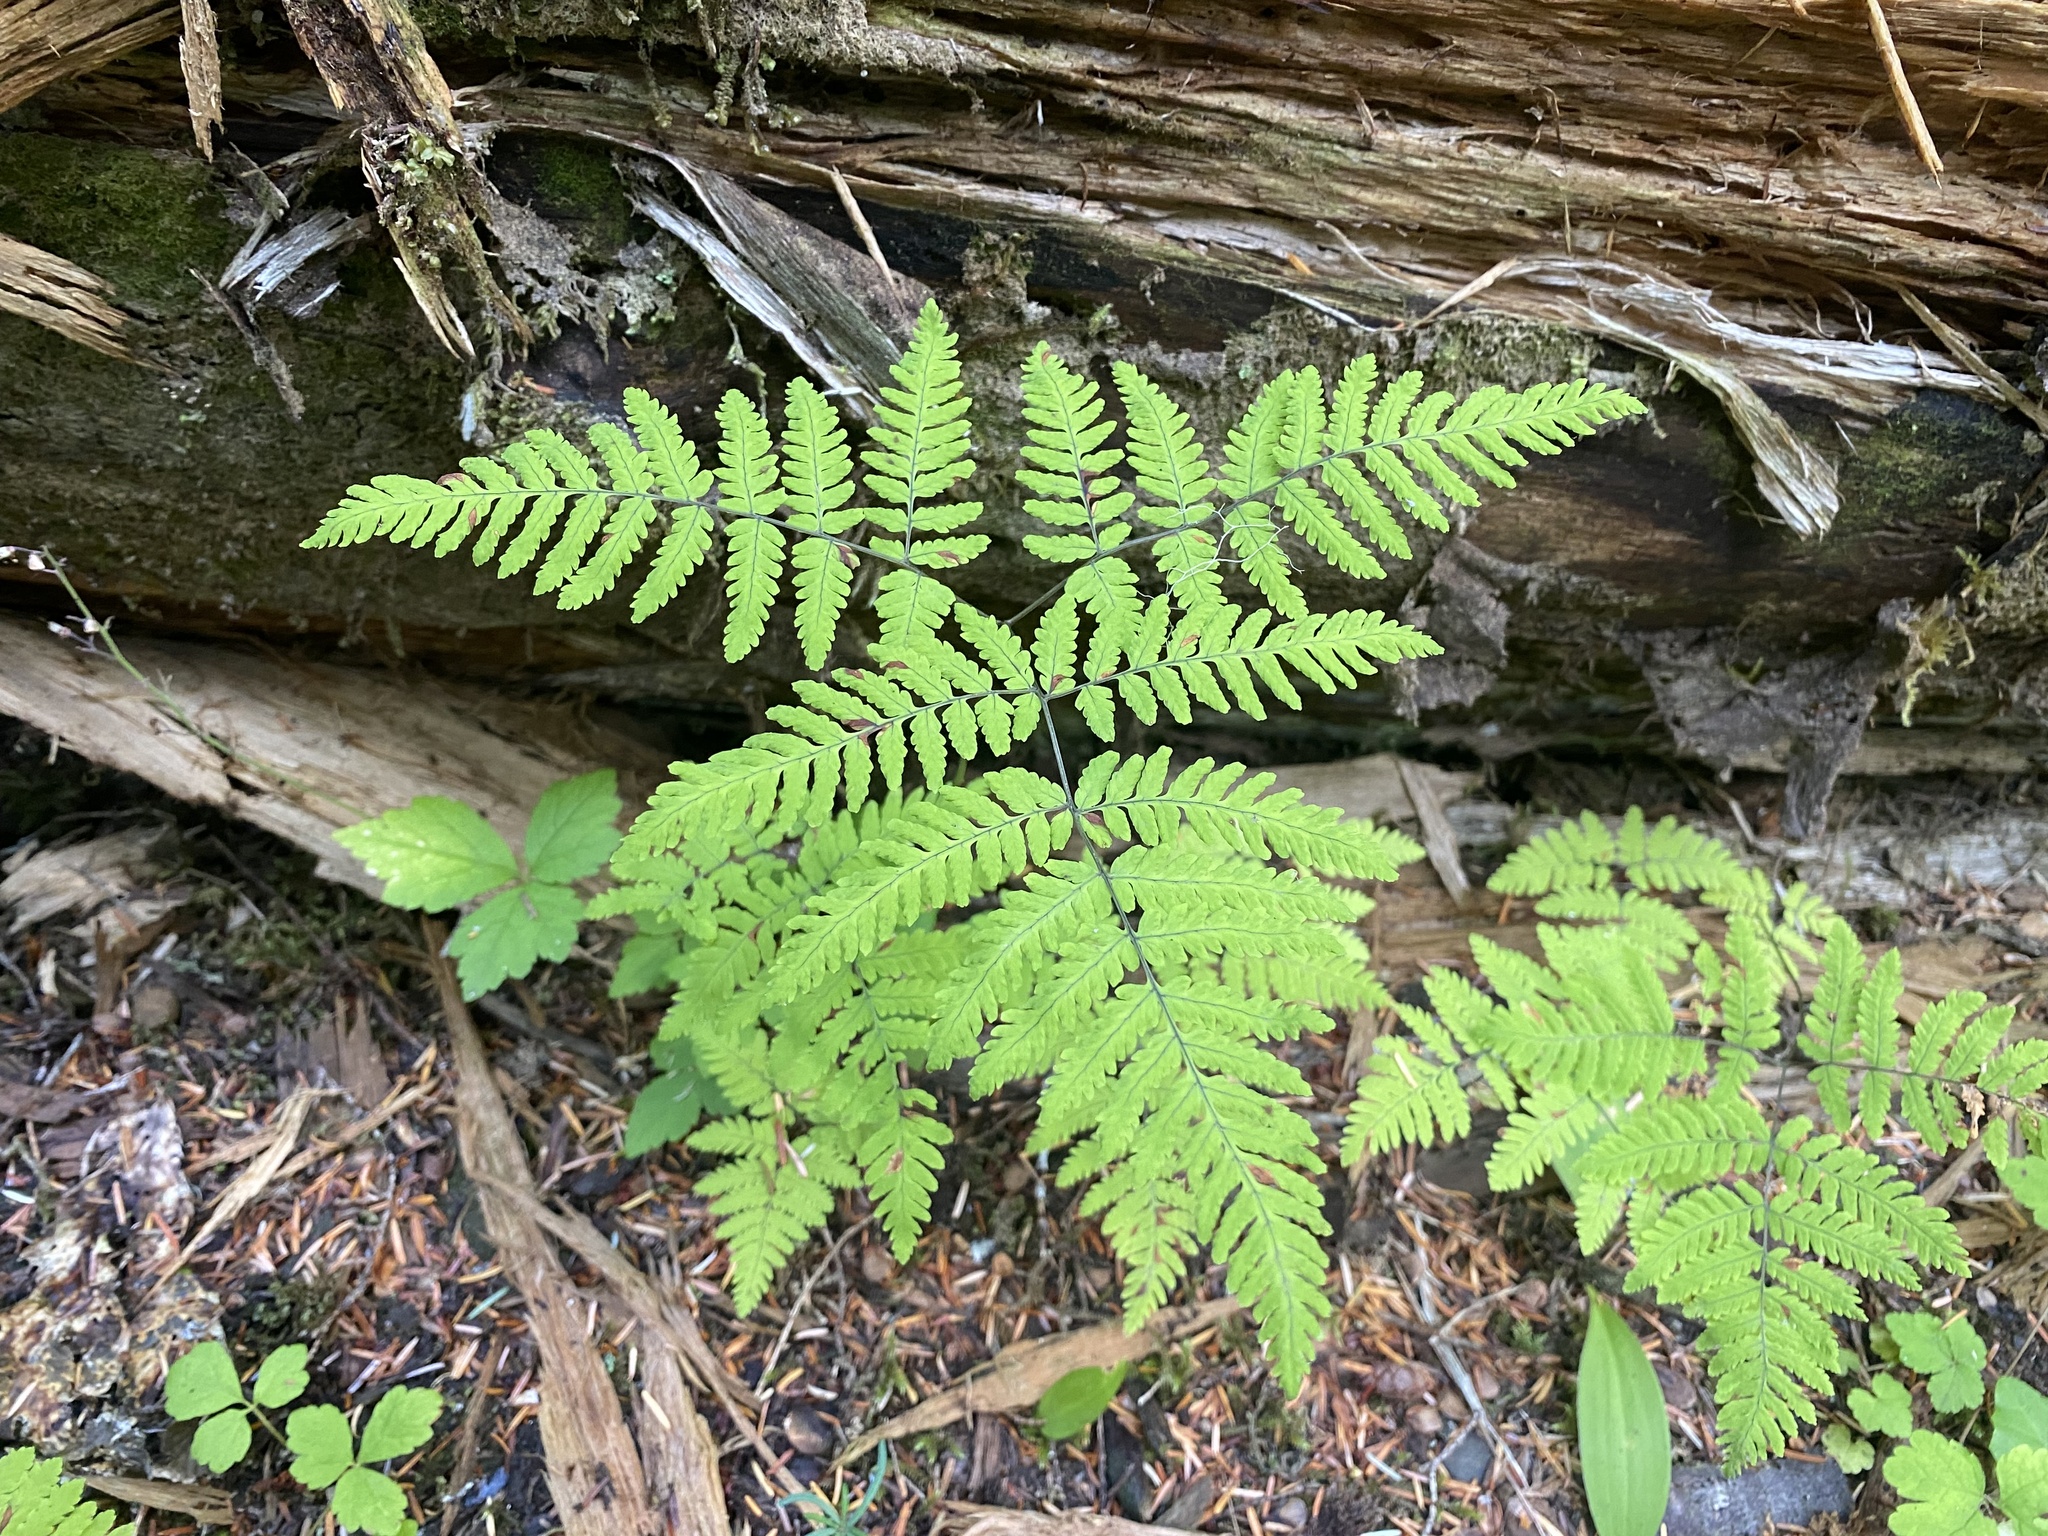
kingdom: Plantae
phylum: Tracheophyta
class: Polypodiopsida
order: Polypodiales
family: Cystopteridaceae
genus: Gymnocarpium
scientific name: Gymnocarpium disjunctum
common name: Western oak fern
